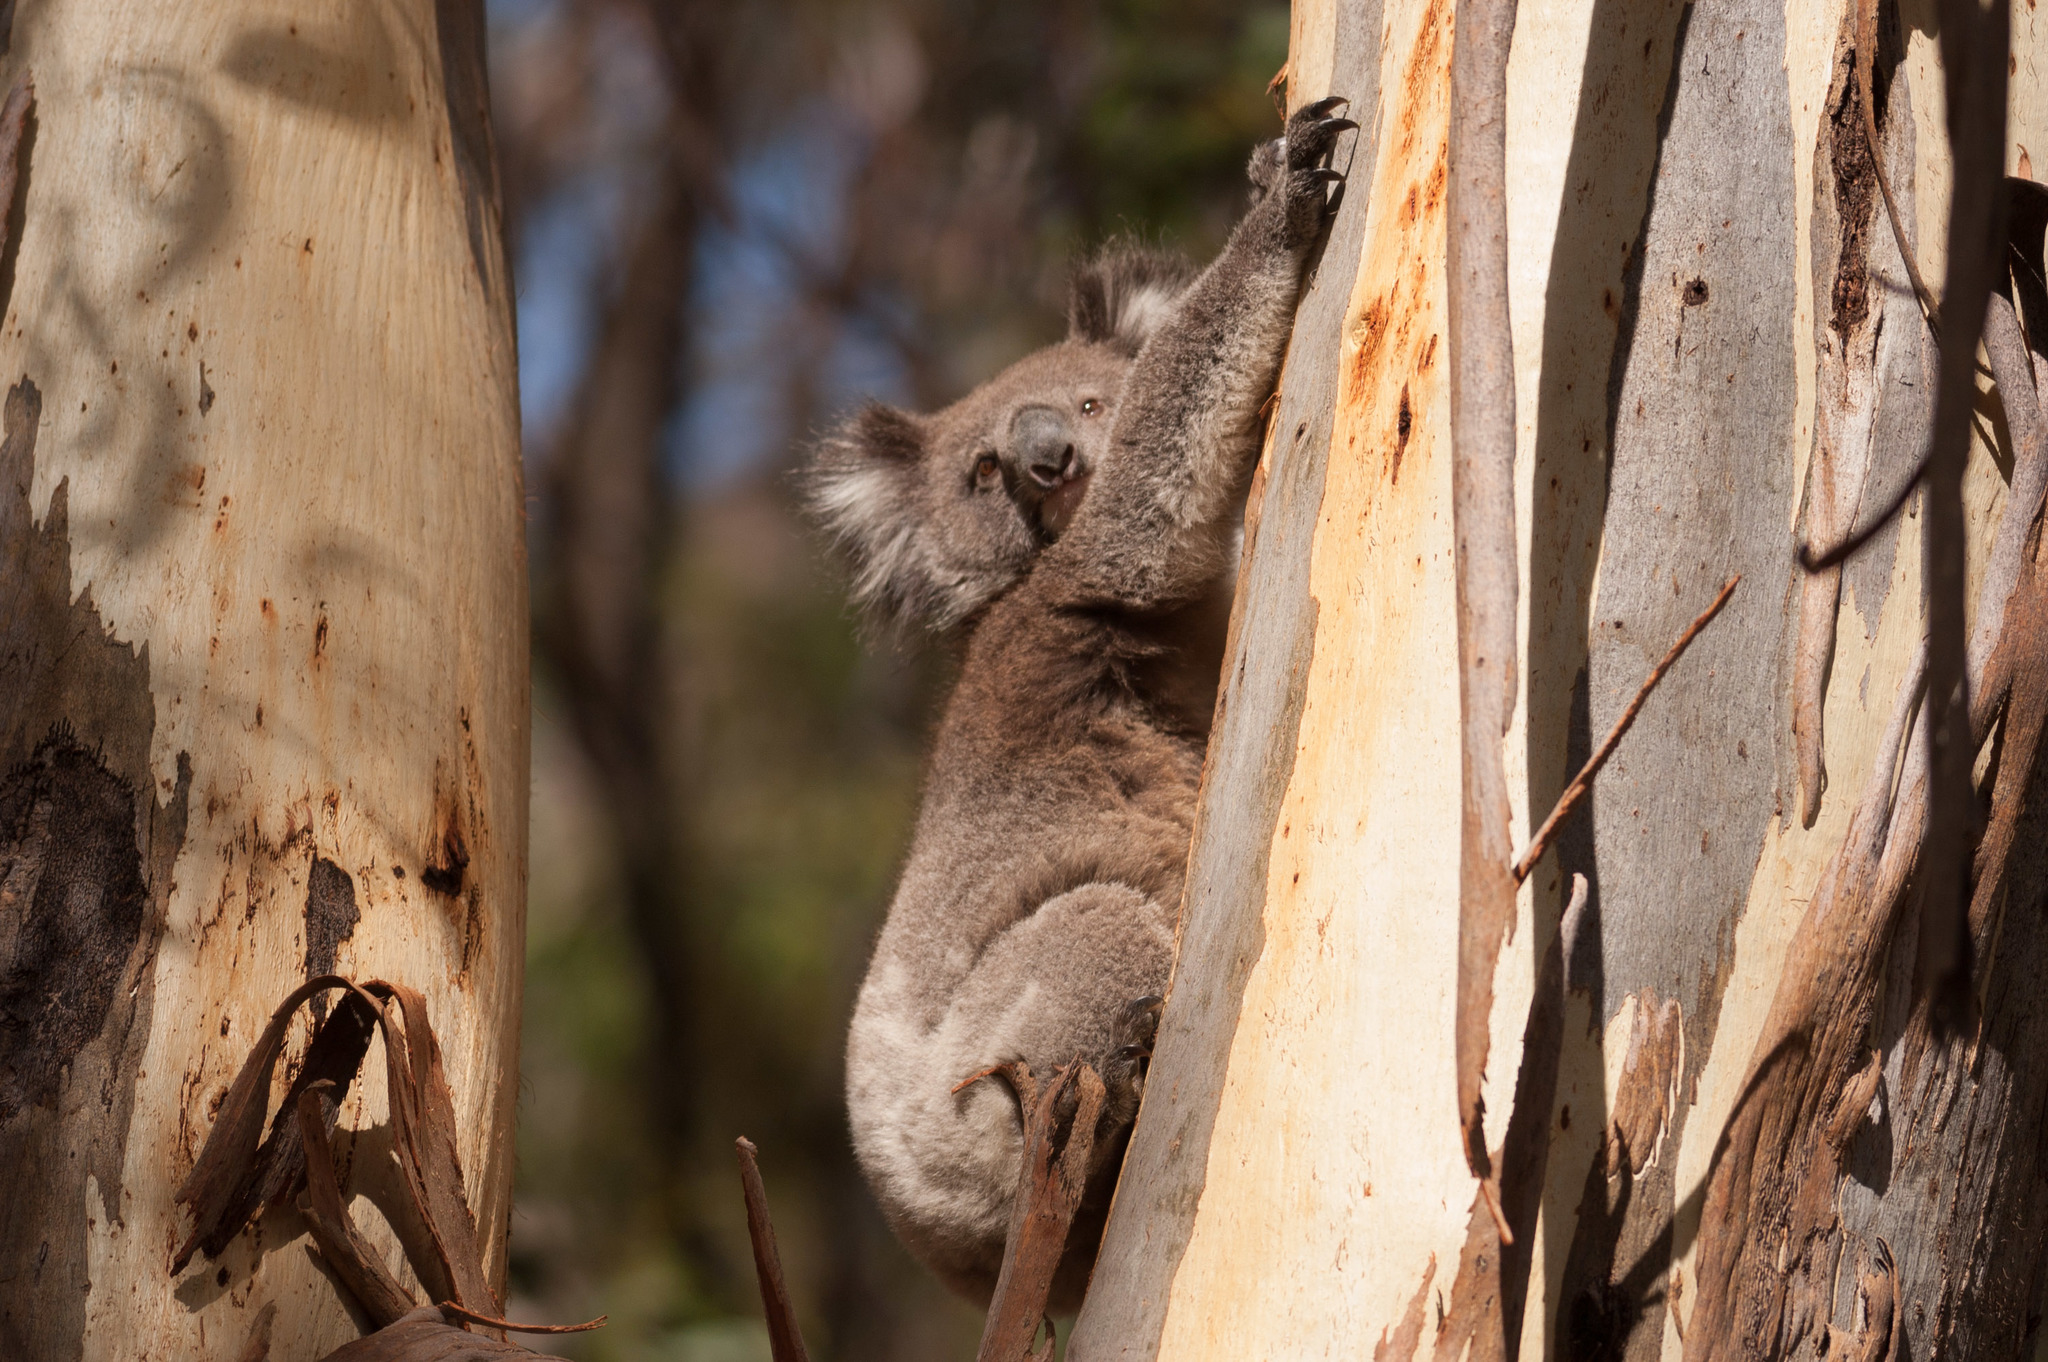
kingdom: Animalia
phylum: Chordata
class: Mammalia
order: Diprotodontia
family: Phascolarctidae
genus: Phascolarctos
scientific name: Phascolarctos cinereus
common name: Koala
